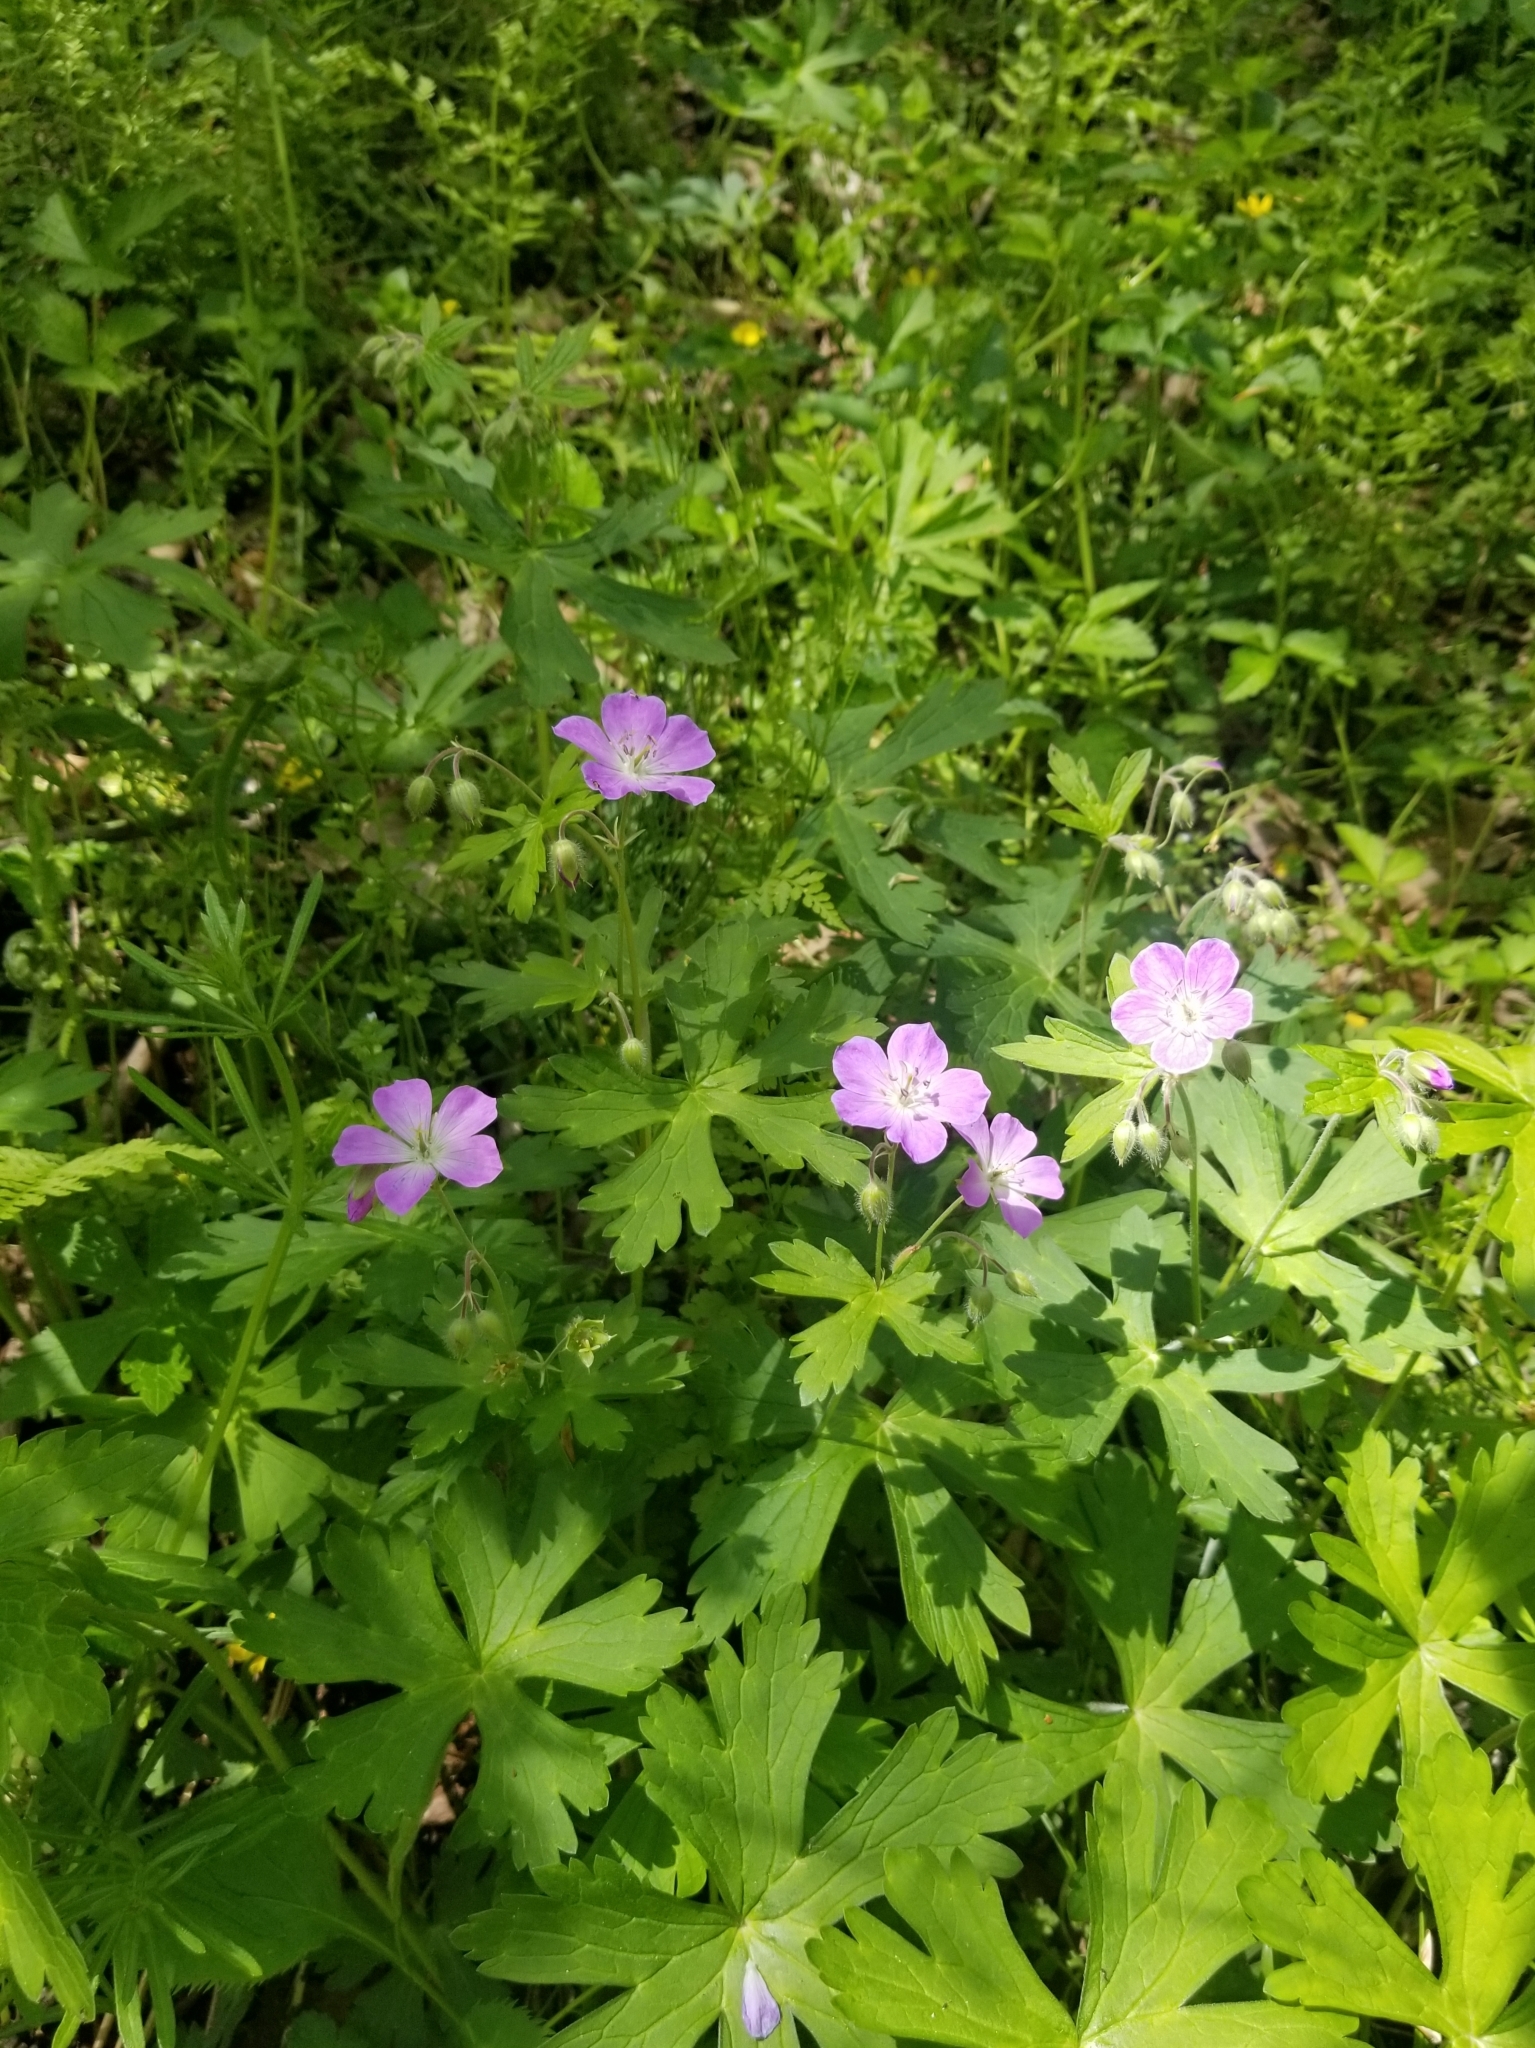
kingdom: Plantae
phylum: Tracheophyta
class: Magnoliopsida
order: Geraniales
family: Geraniaceae
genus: Geranium
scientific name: Geranium maculatum
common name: Spotted geranium
